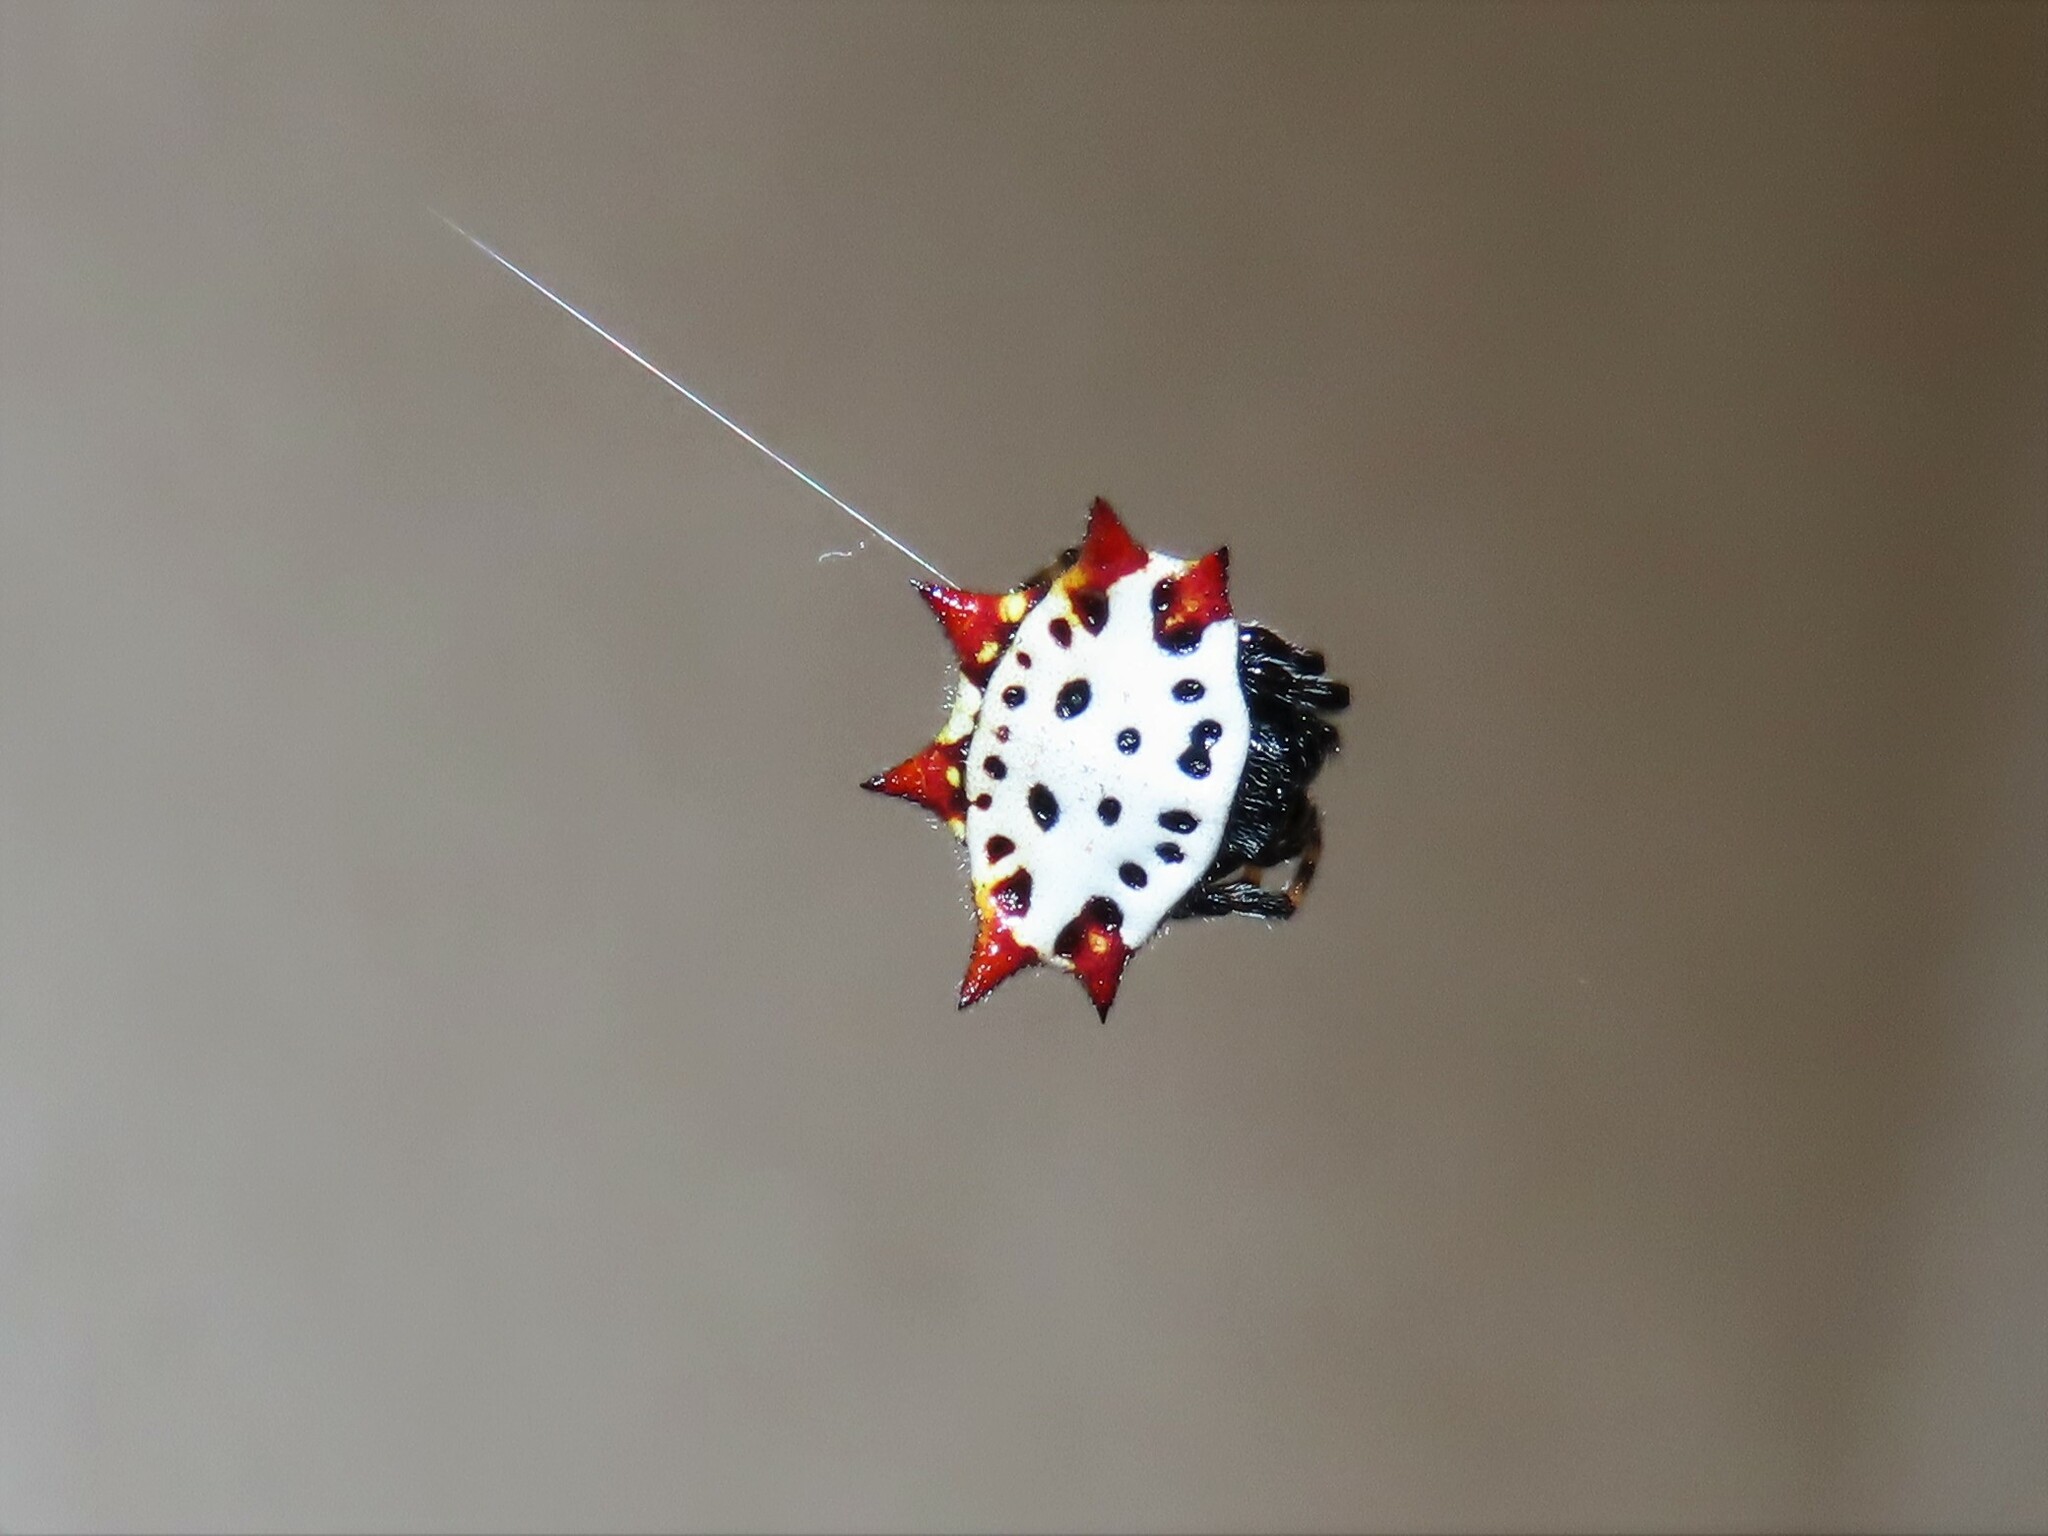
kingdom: Animalia
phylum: Arthropoda
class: Arachnida
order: Araneae
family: Araneidae
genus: Gasteracantha
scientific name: Gasteracantha cancriformis
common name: Orb weavers
